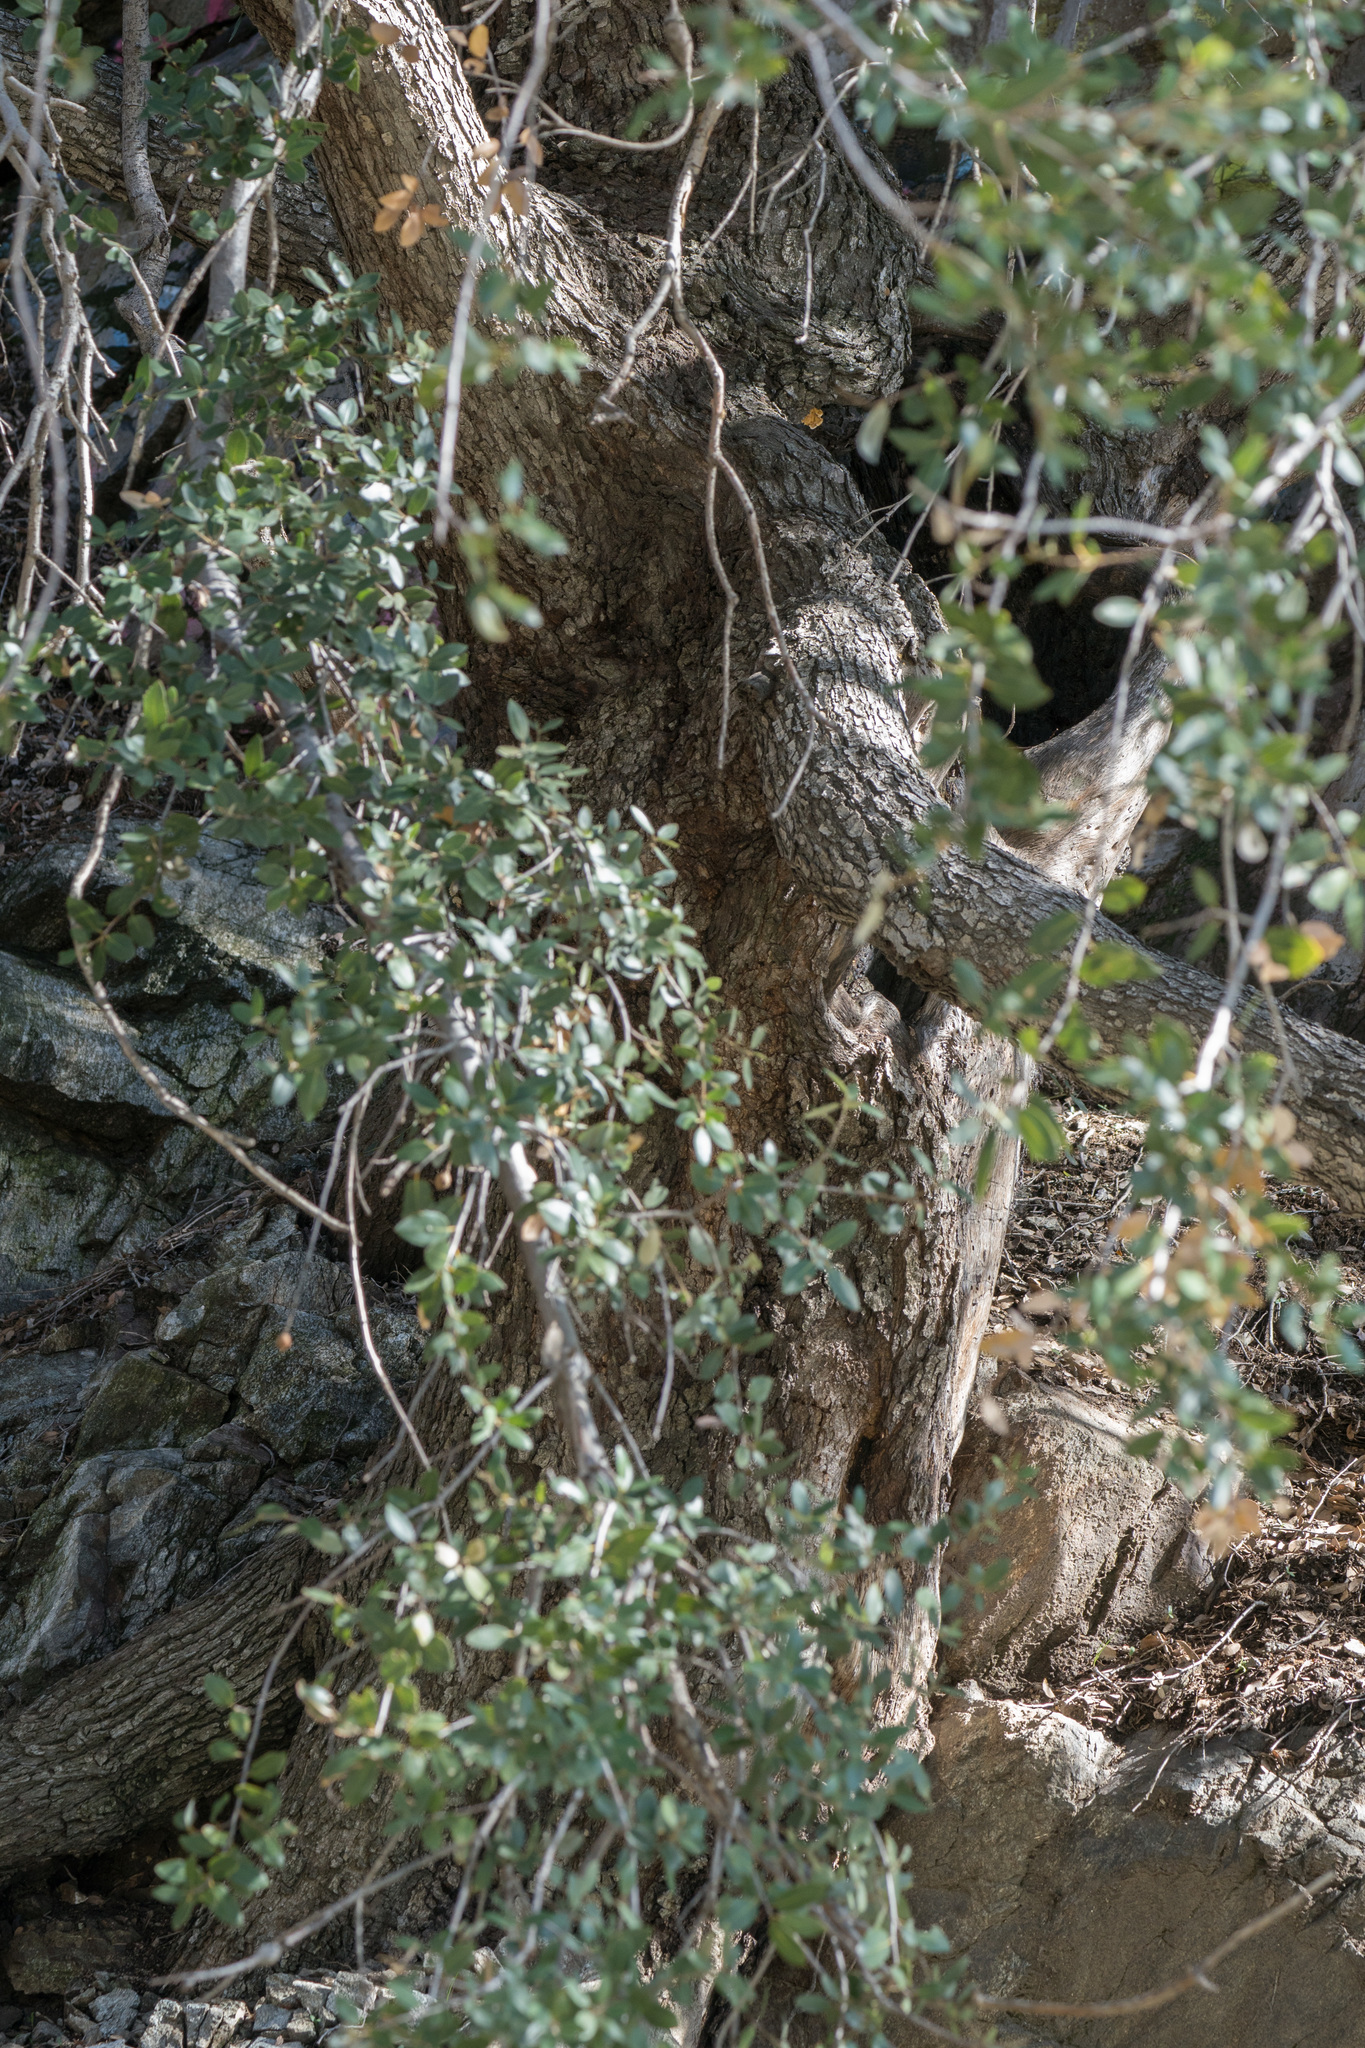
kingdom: Plantae
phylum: Tracheophyta
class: Magnoliopsida
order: Fagales
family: Fagaceae
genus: Quercus
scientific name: Quercus chrysolepis
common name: Canyon live oak
